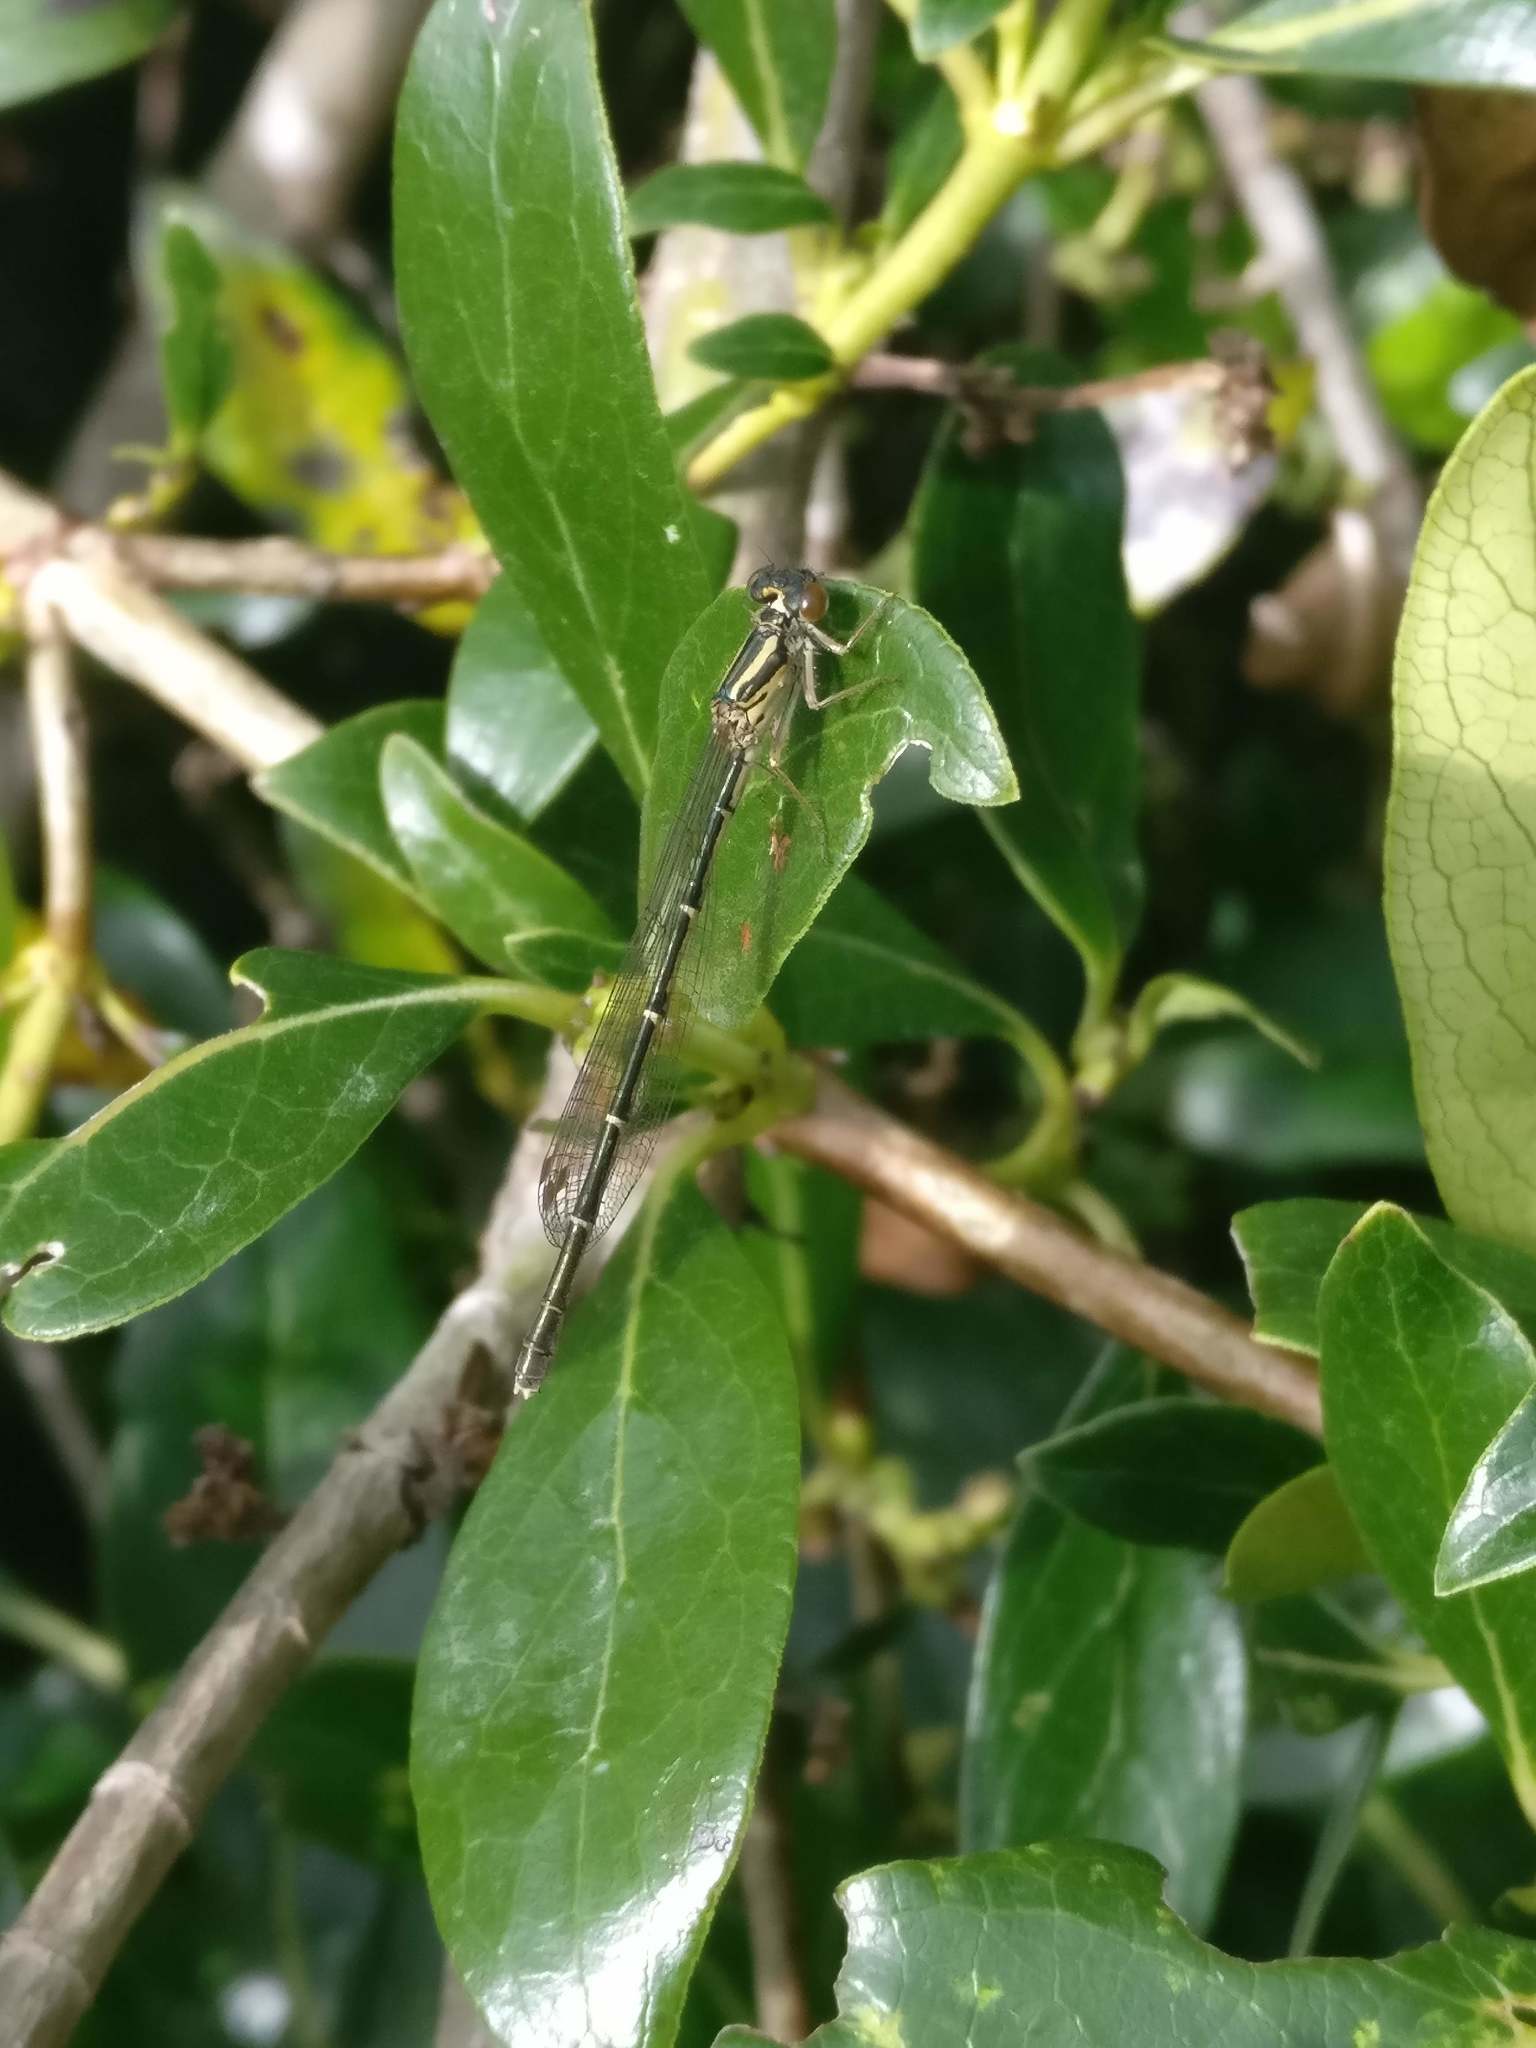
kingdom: Animalia
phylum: Arthropoda
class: Insecta
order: Odonata
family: Coenagrionidae
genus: Xanthocnemis
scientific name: Xanthocnemis zealandica
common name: Common redcoat damselfly
